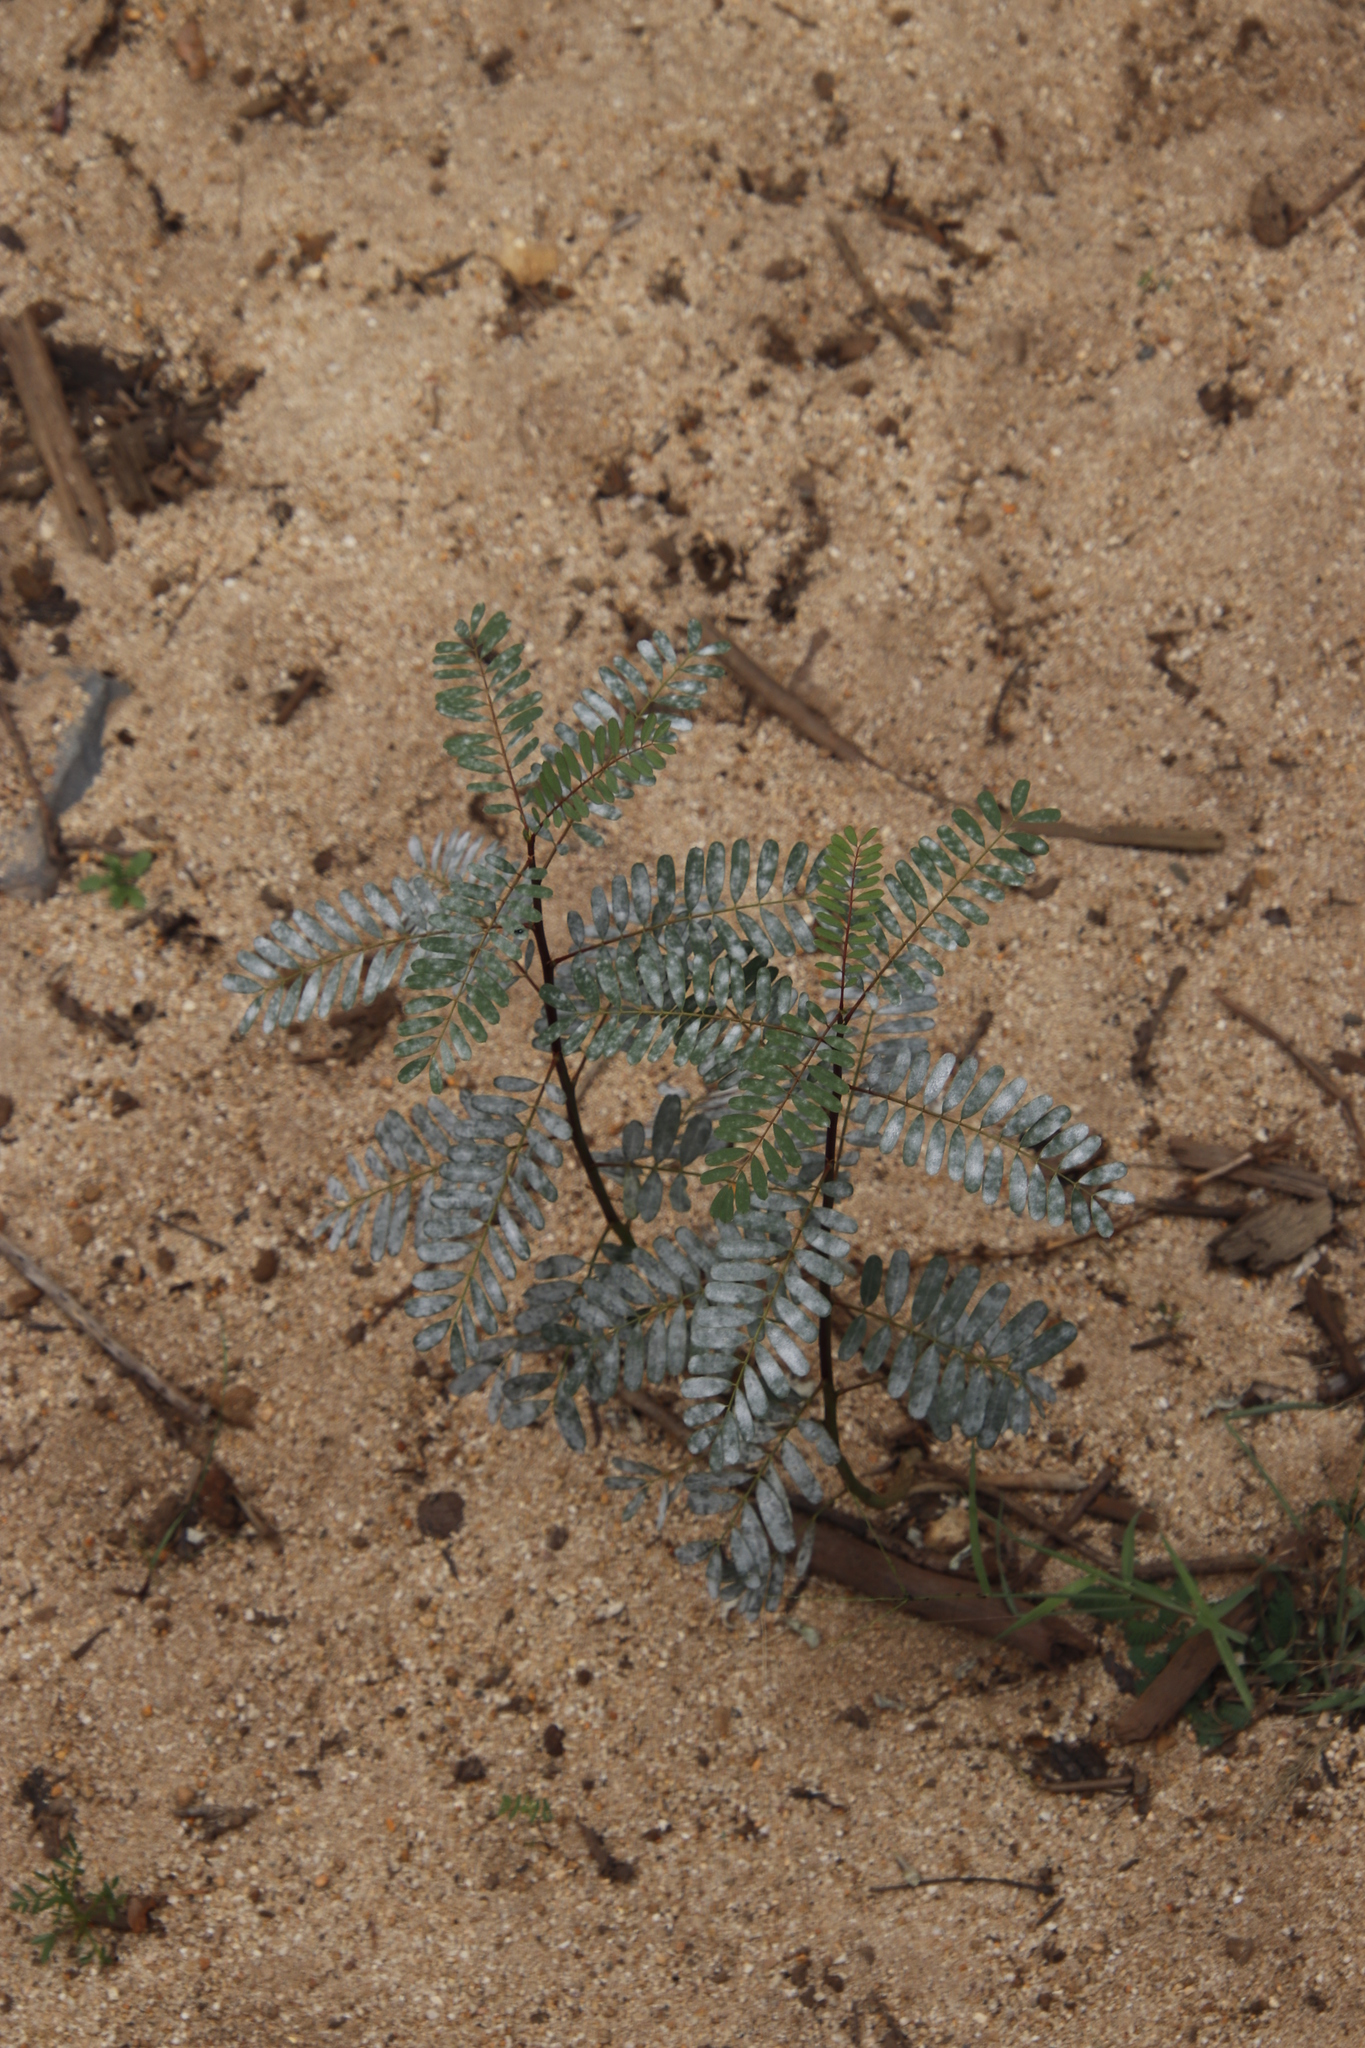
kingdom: Plantae
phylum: Tracheophyta
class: Magnoliopsida
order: Fabales
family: Fabaceae
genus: Sesbania
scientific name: Sesbania punicea
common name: Rattlebox
